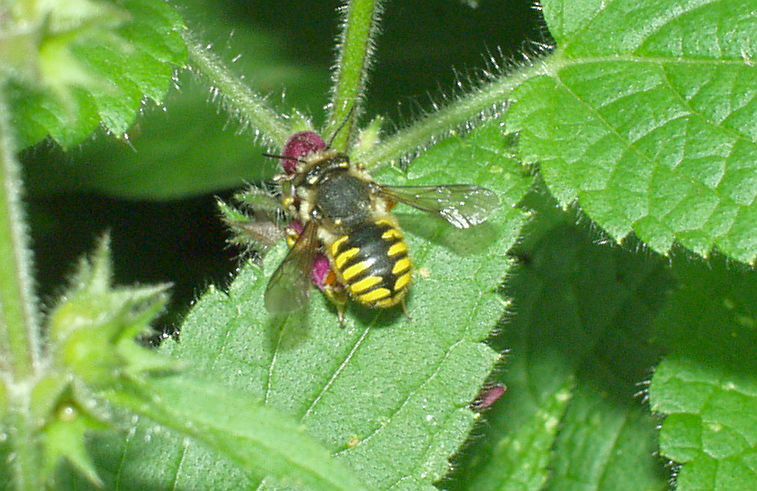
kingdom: Animalia
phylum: Arthropoda
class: Insecta
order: Hymenoptera
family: Megachilidae
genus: Anthidium
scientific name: Anthidium manicatum
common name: Wool carder bee
